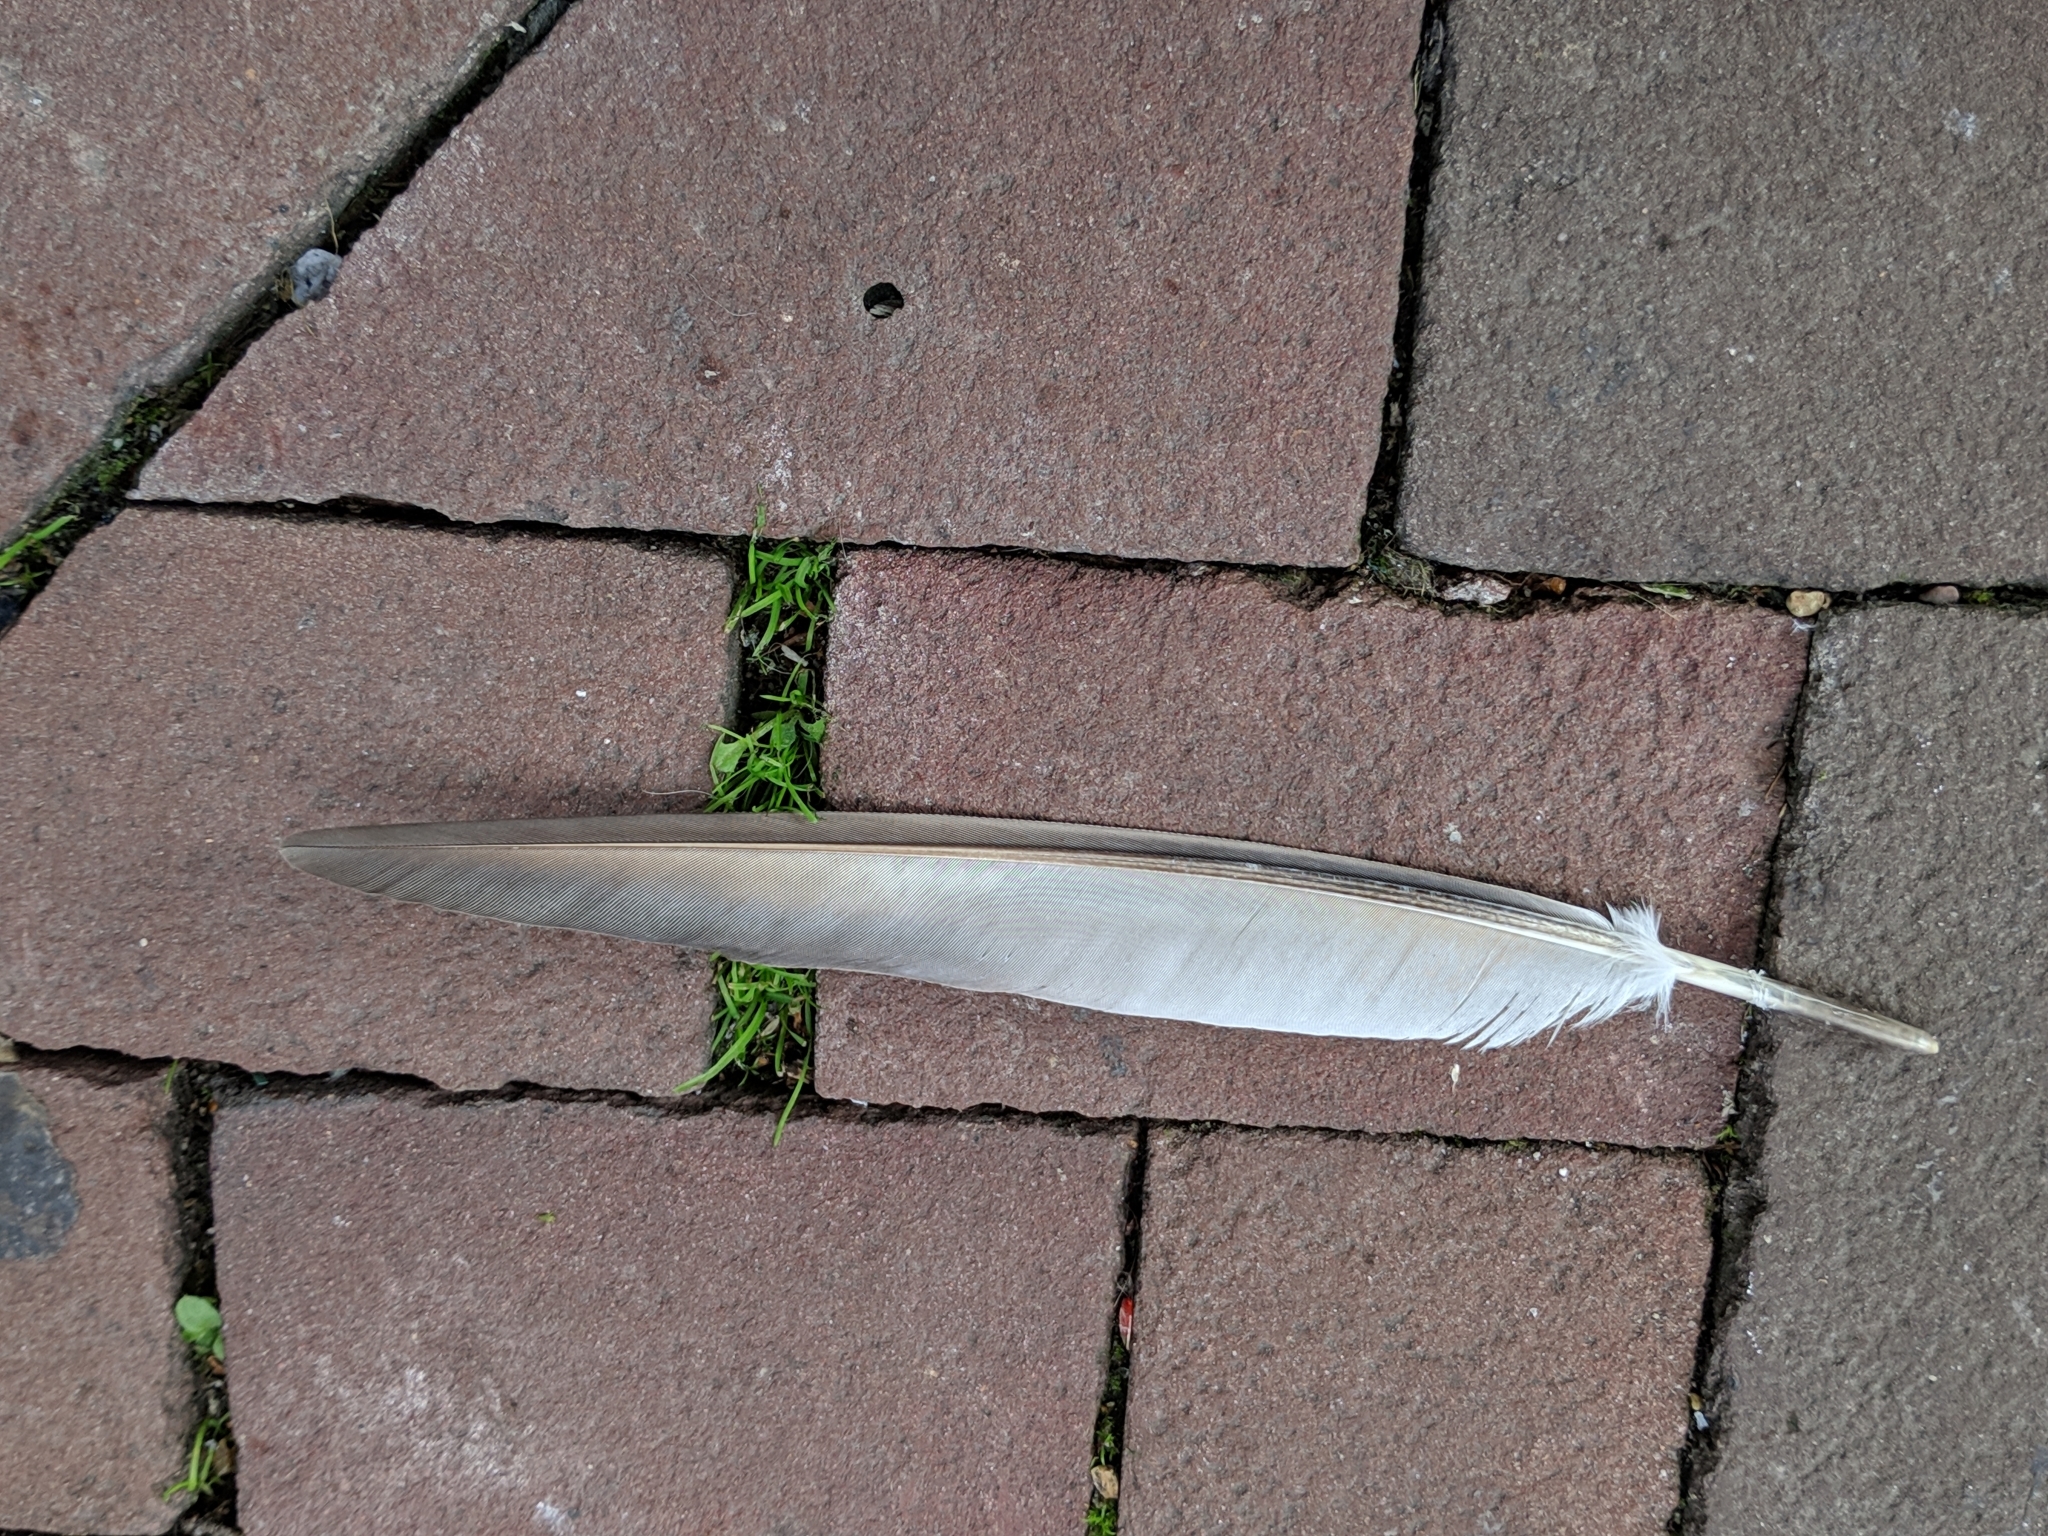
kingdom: Animalia
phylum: Chordata
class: Aves
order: Columbiformes
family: Columbidae
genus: Columba
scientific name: Columba livia
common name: Rock pigeon
